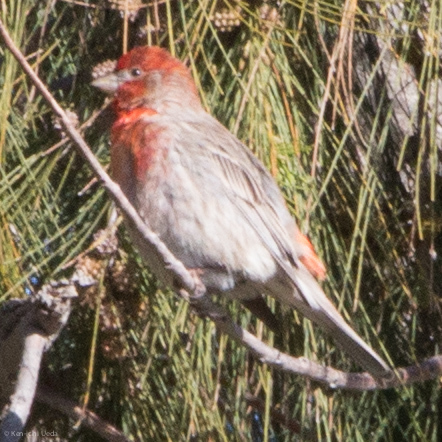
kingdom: Animalia
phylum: Chordata
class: Aves
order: Passeriformes
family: Fringillidae
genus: Haemorhous
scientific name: Haemorhous mexicanus
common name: House finch
